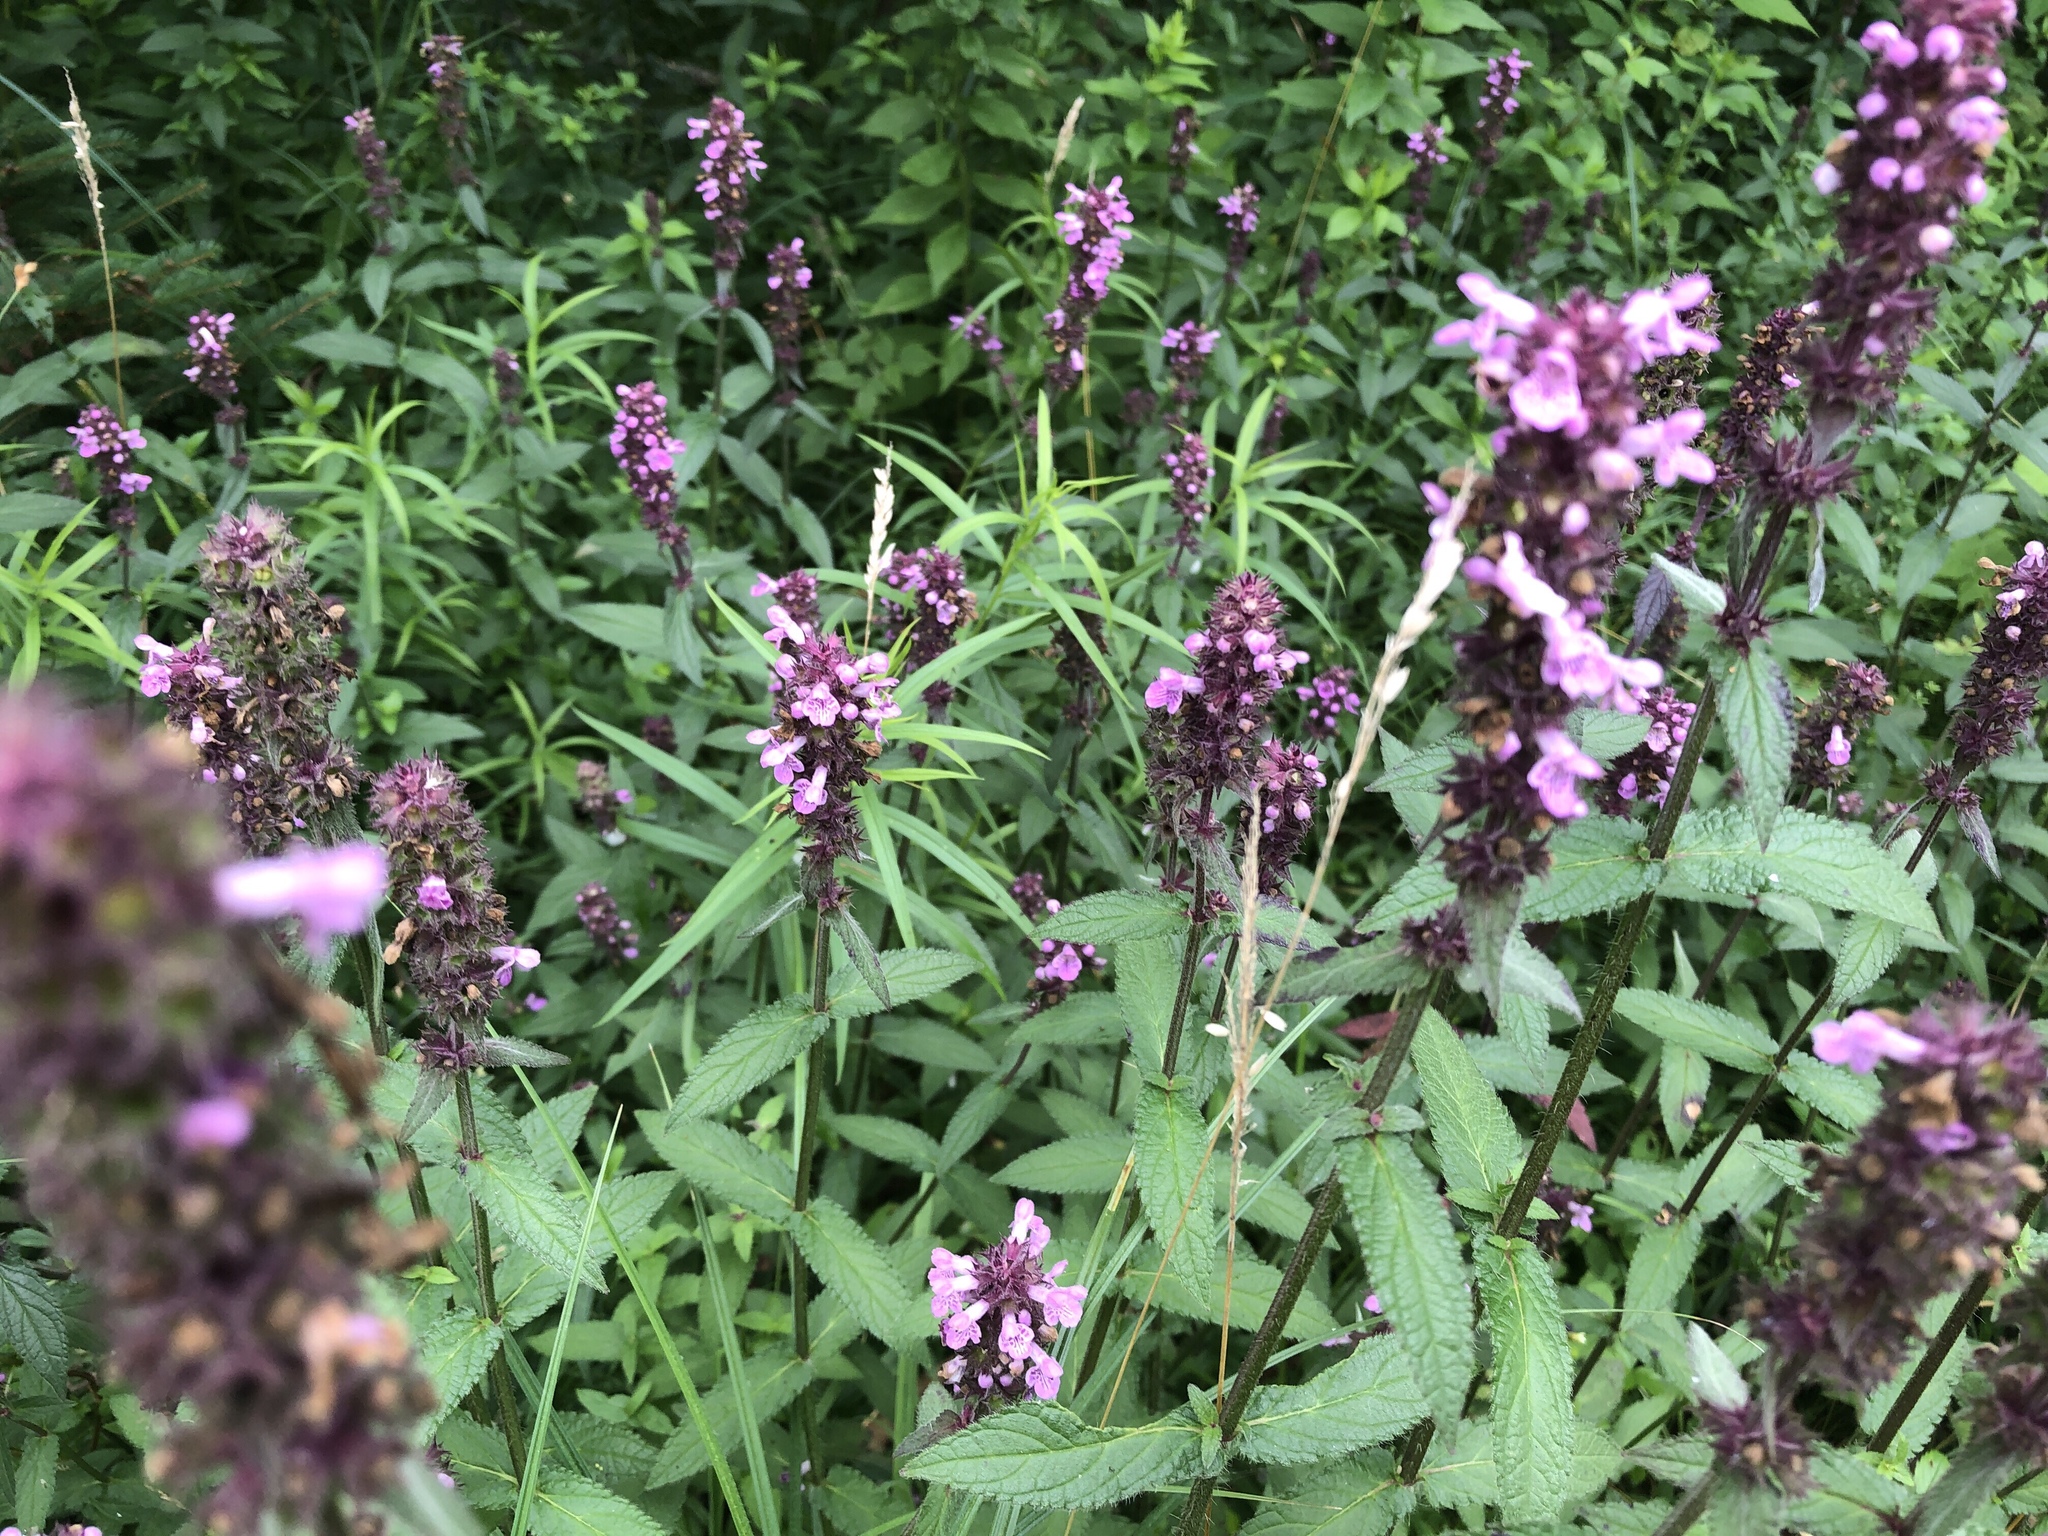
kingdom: Plantae
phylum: Tracheophyta
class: Magnoliopsida
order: Lamiales
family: Lamiaceae
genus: Stachys
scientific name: Stachys palustris
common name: Marsh woundwort
